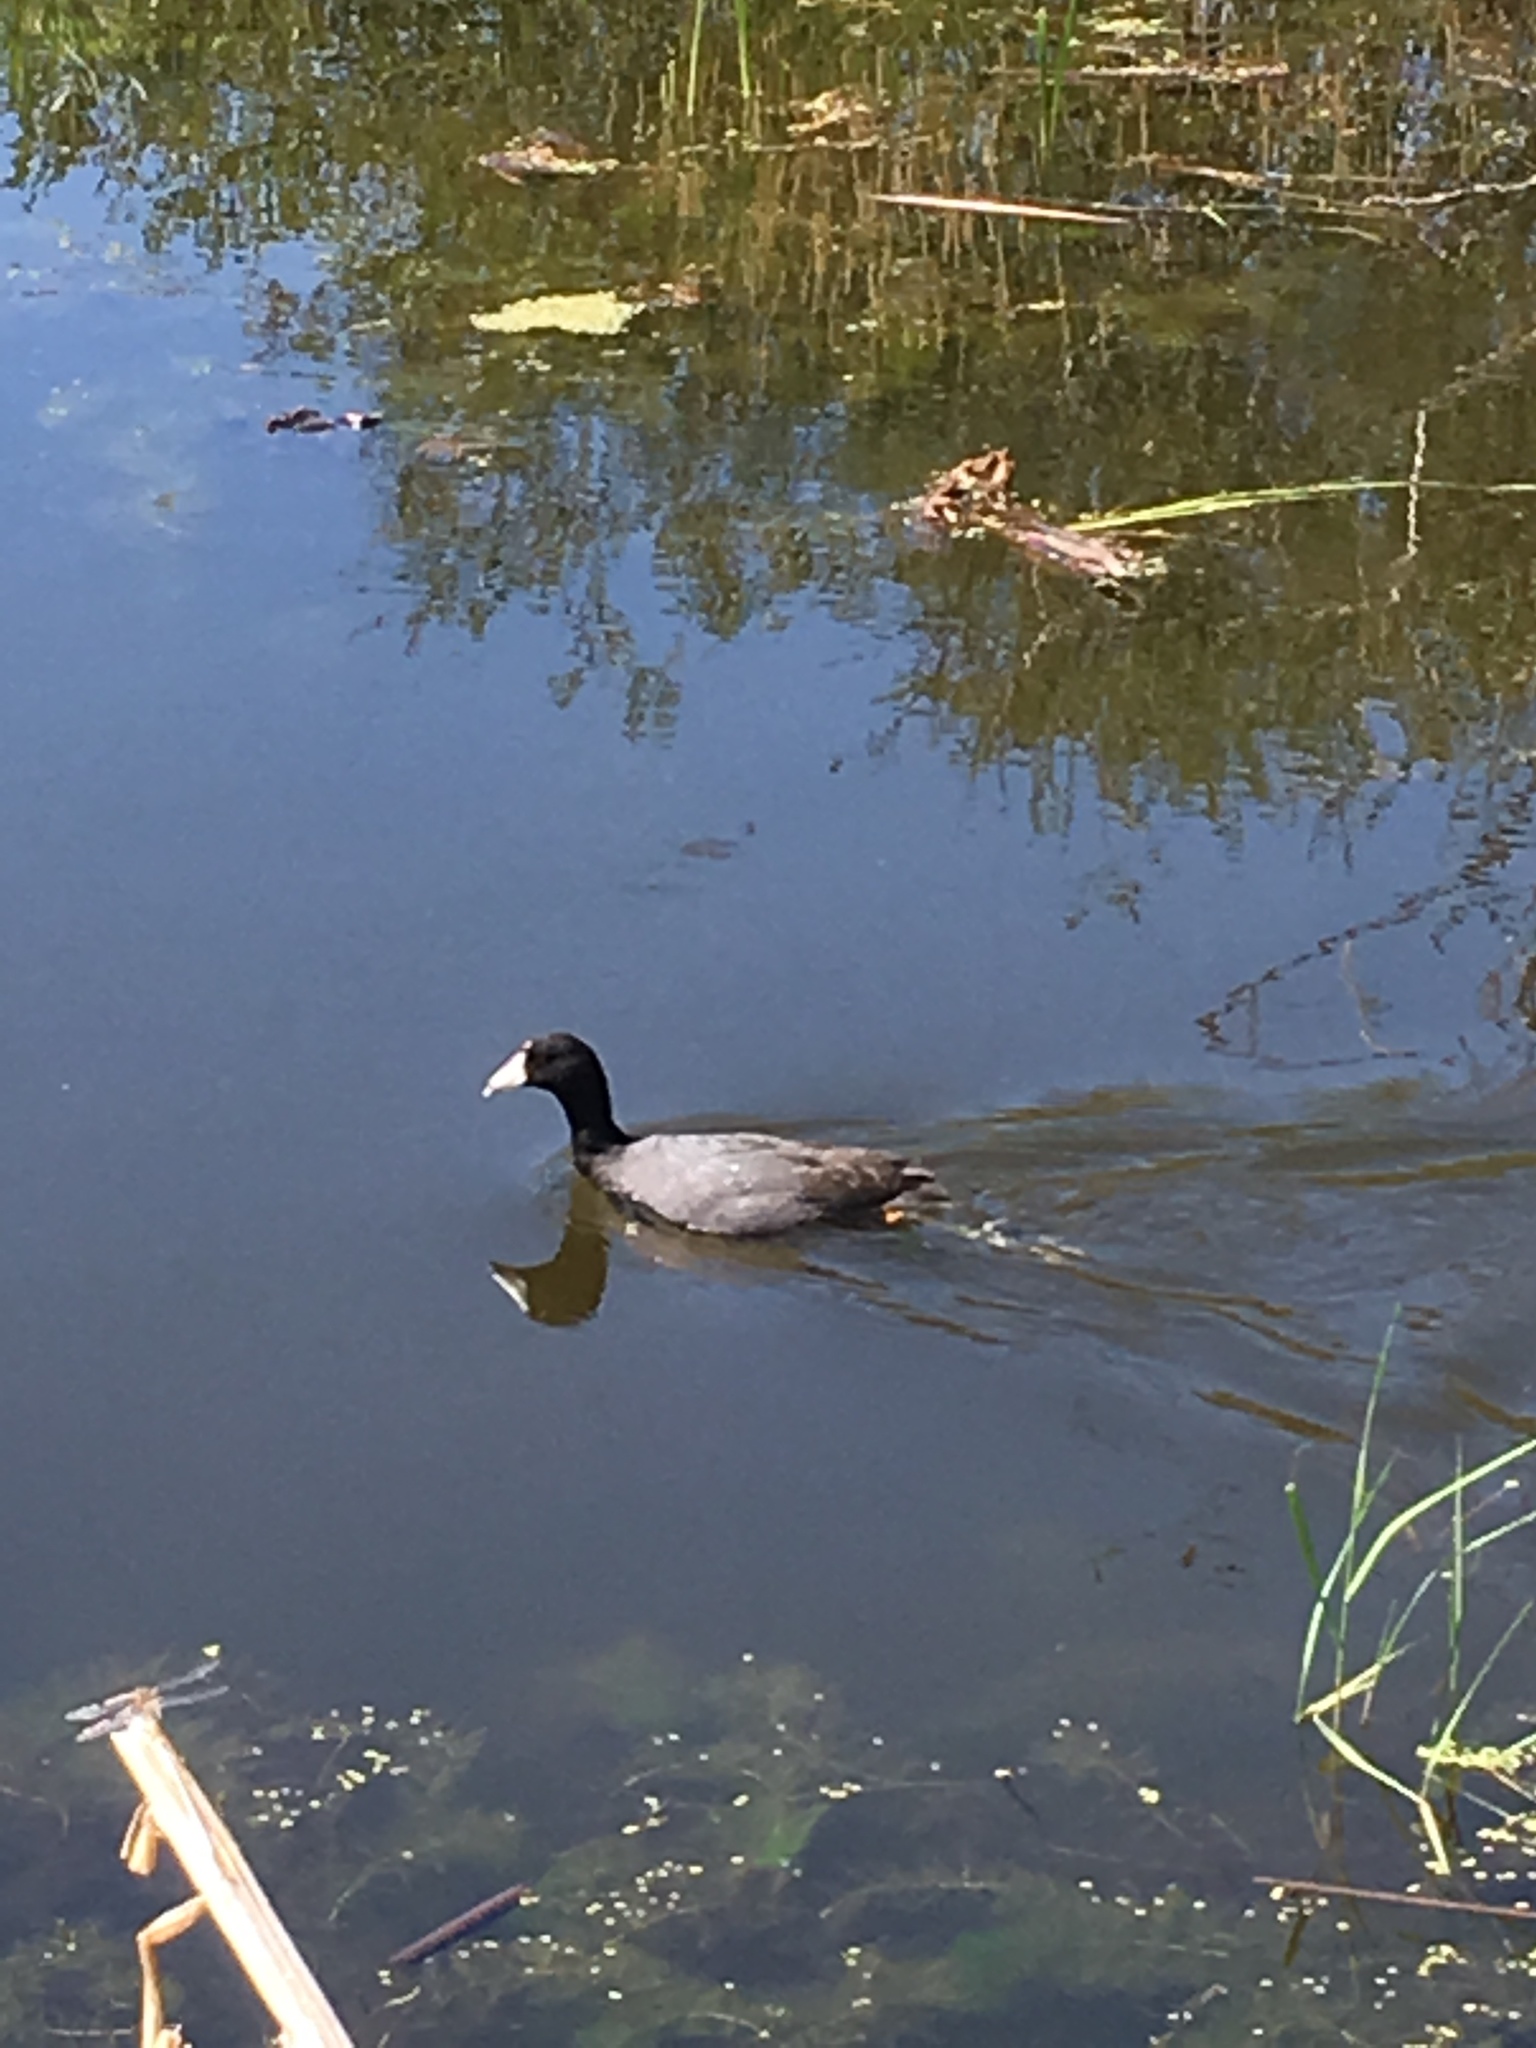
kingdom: Animalia
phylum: Chordata
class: Aves
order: Gruiformes
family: Rallidae
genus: Fulica
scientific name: Fulica americana
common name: American coot
